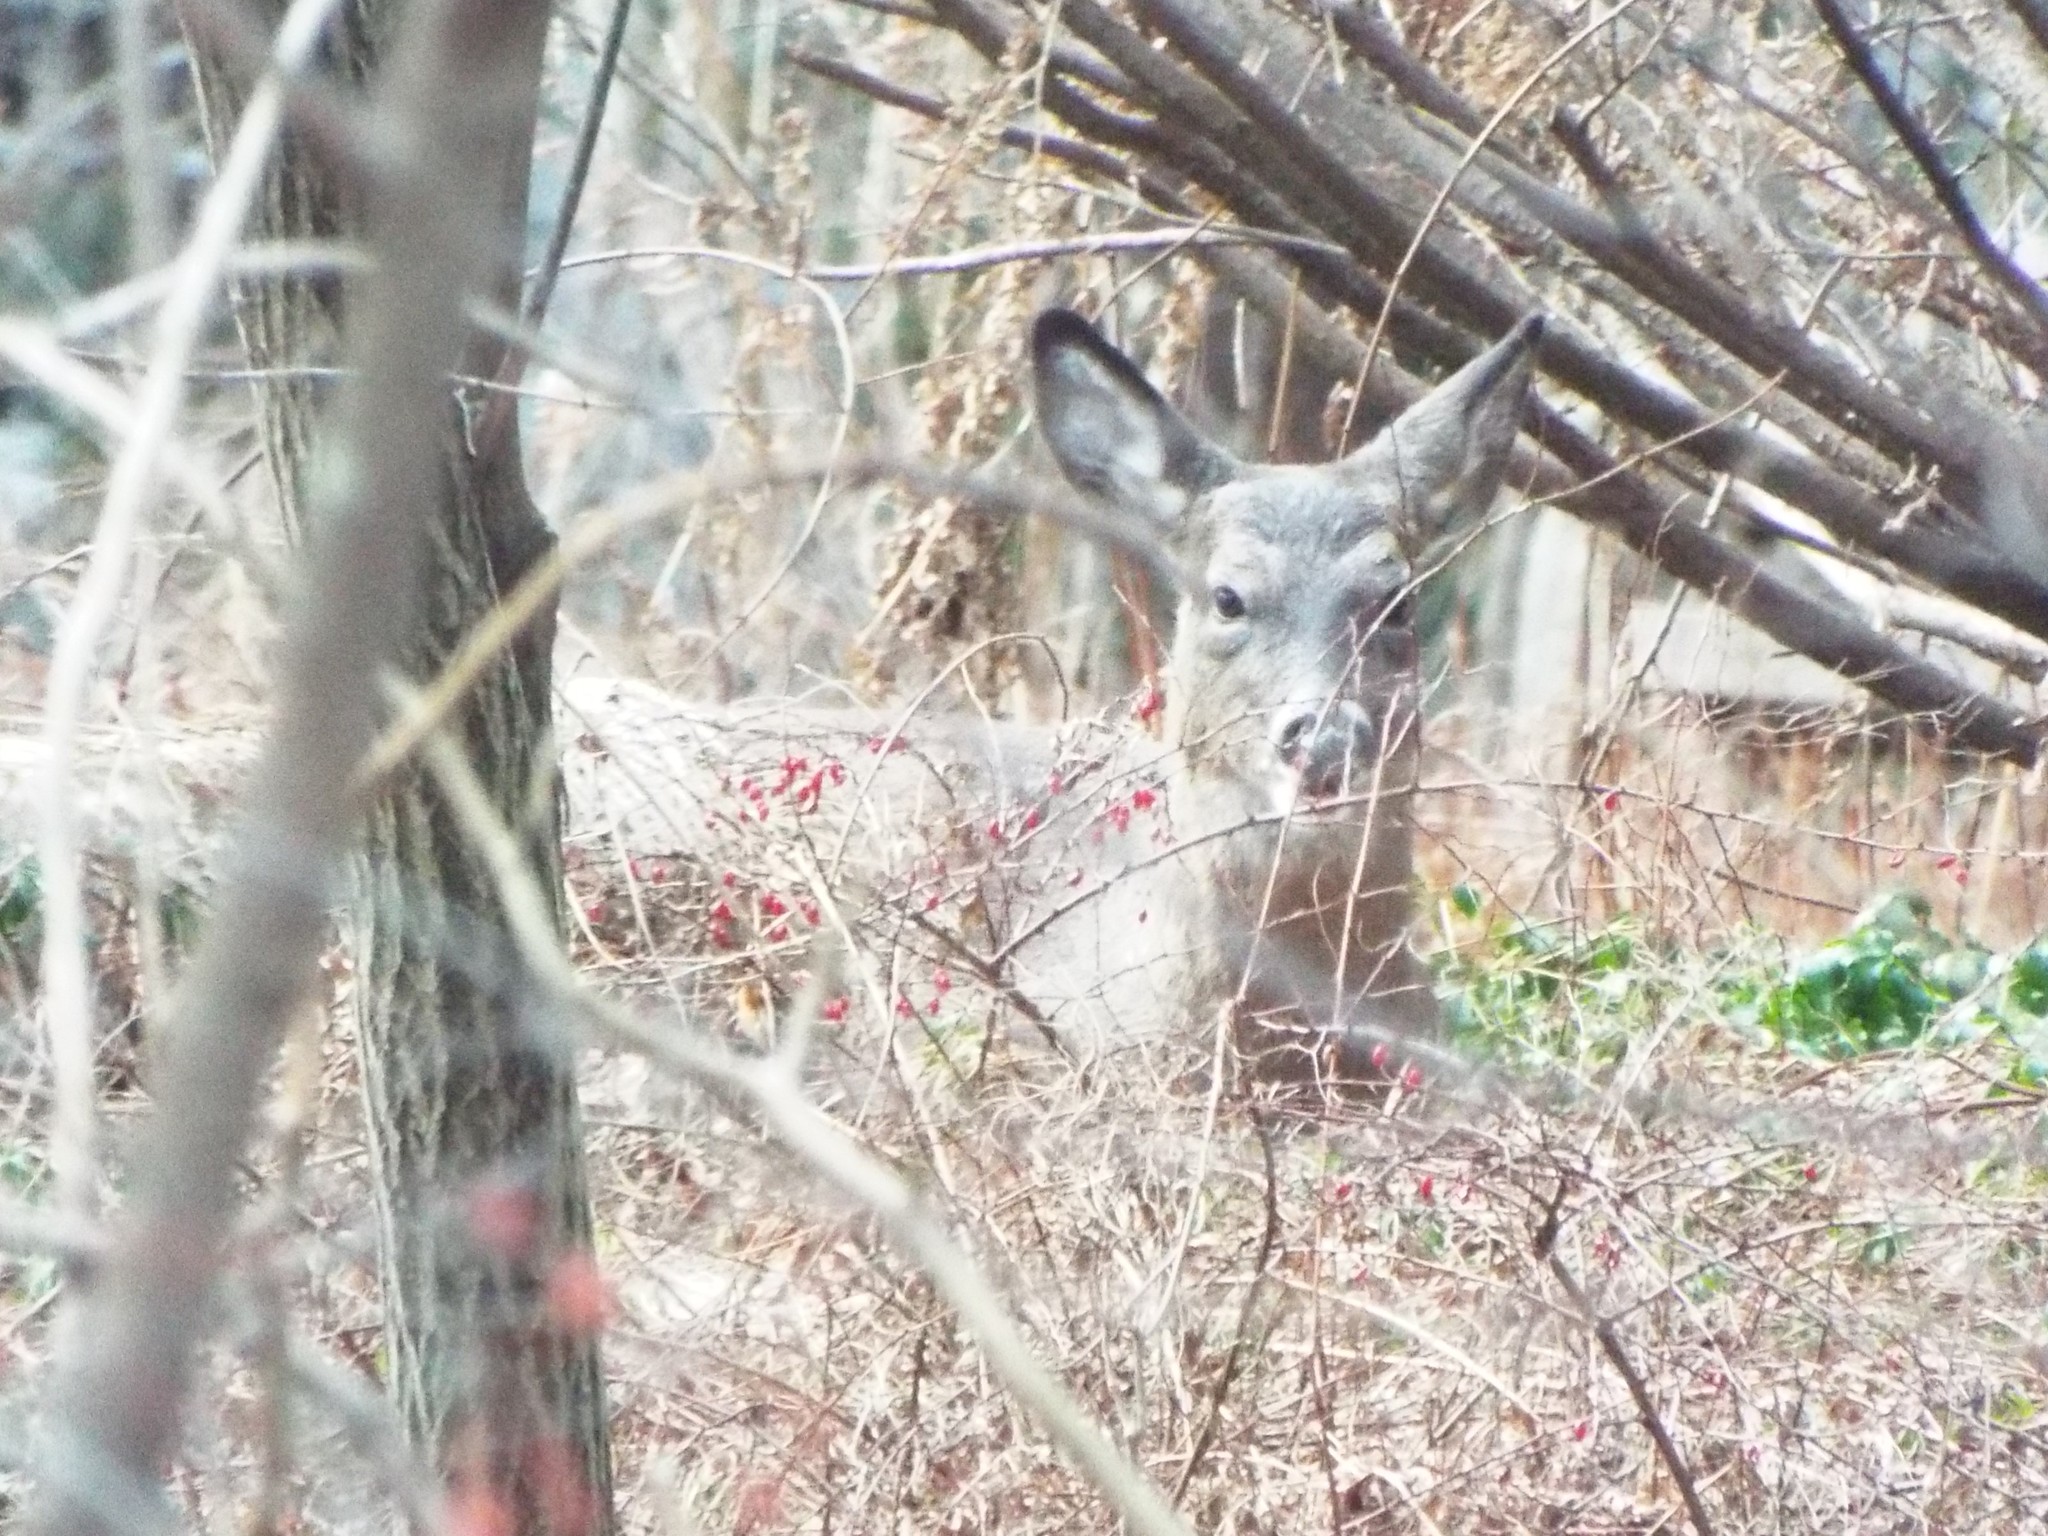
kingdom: Animalia
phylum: Chordata
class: Mammalia
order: Artiodactyla
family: Cervidae
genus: Odocoileus
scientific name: Odocoileus virginianus
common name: White-tailed deer
